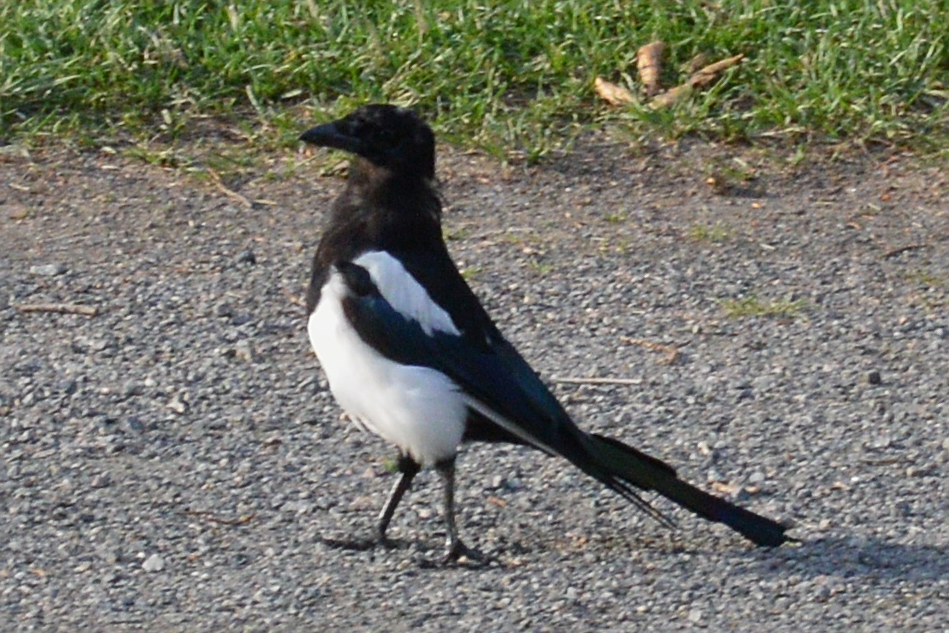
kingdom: Animalia
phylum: Chordata
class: Aves
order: Passeriformes
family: Corvidae
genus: Pica
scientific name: Pica pica
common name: Eurasian magpie
